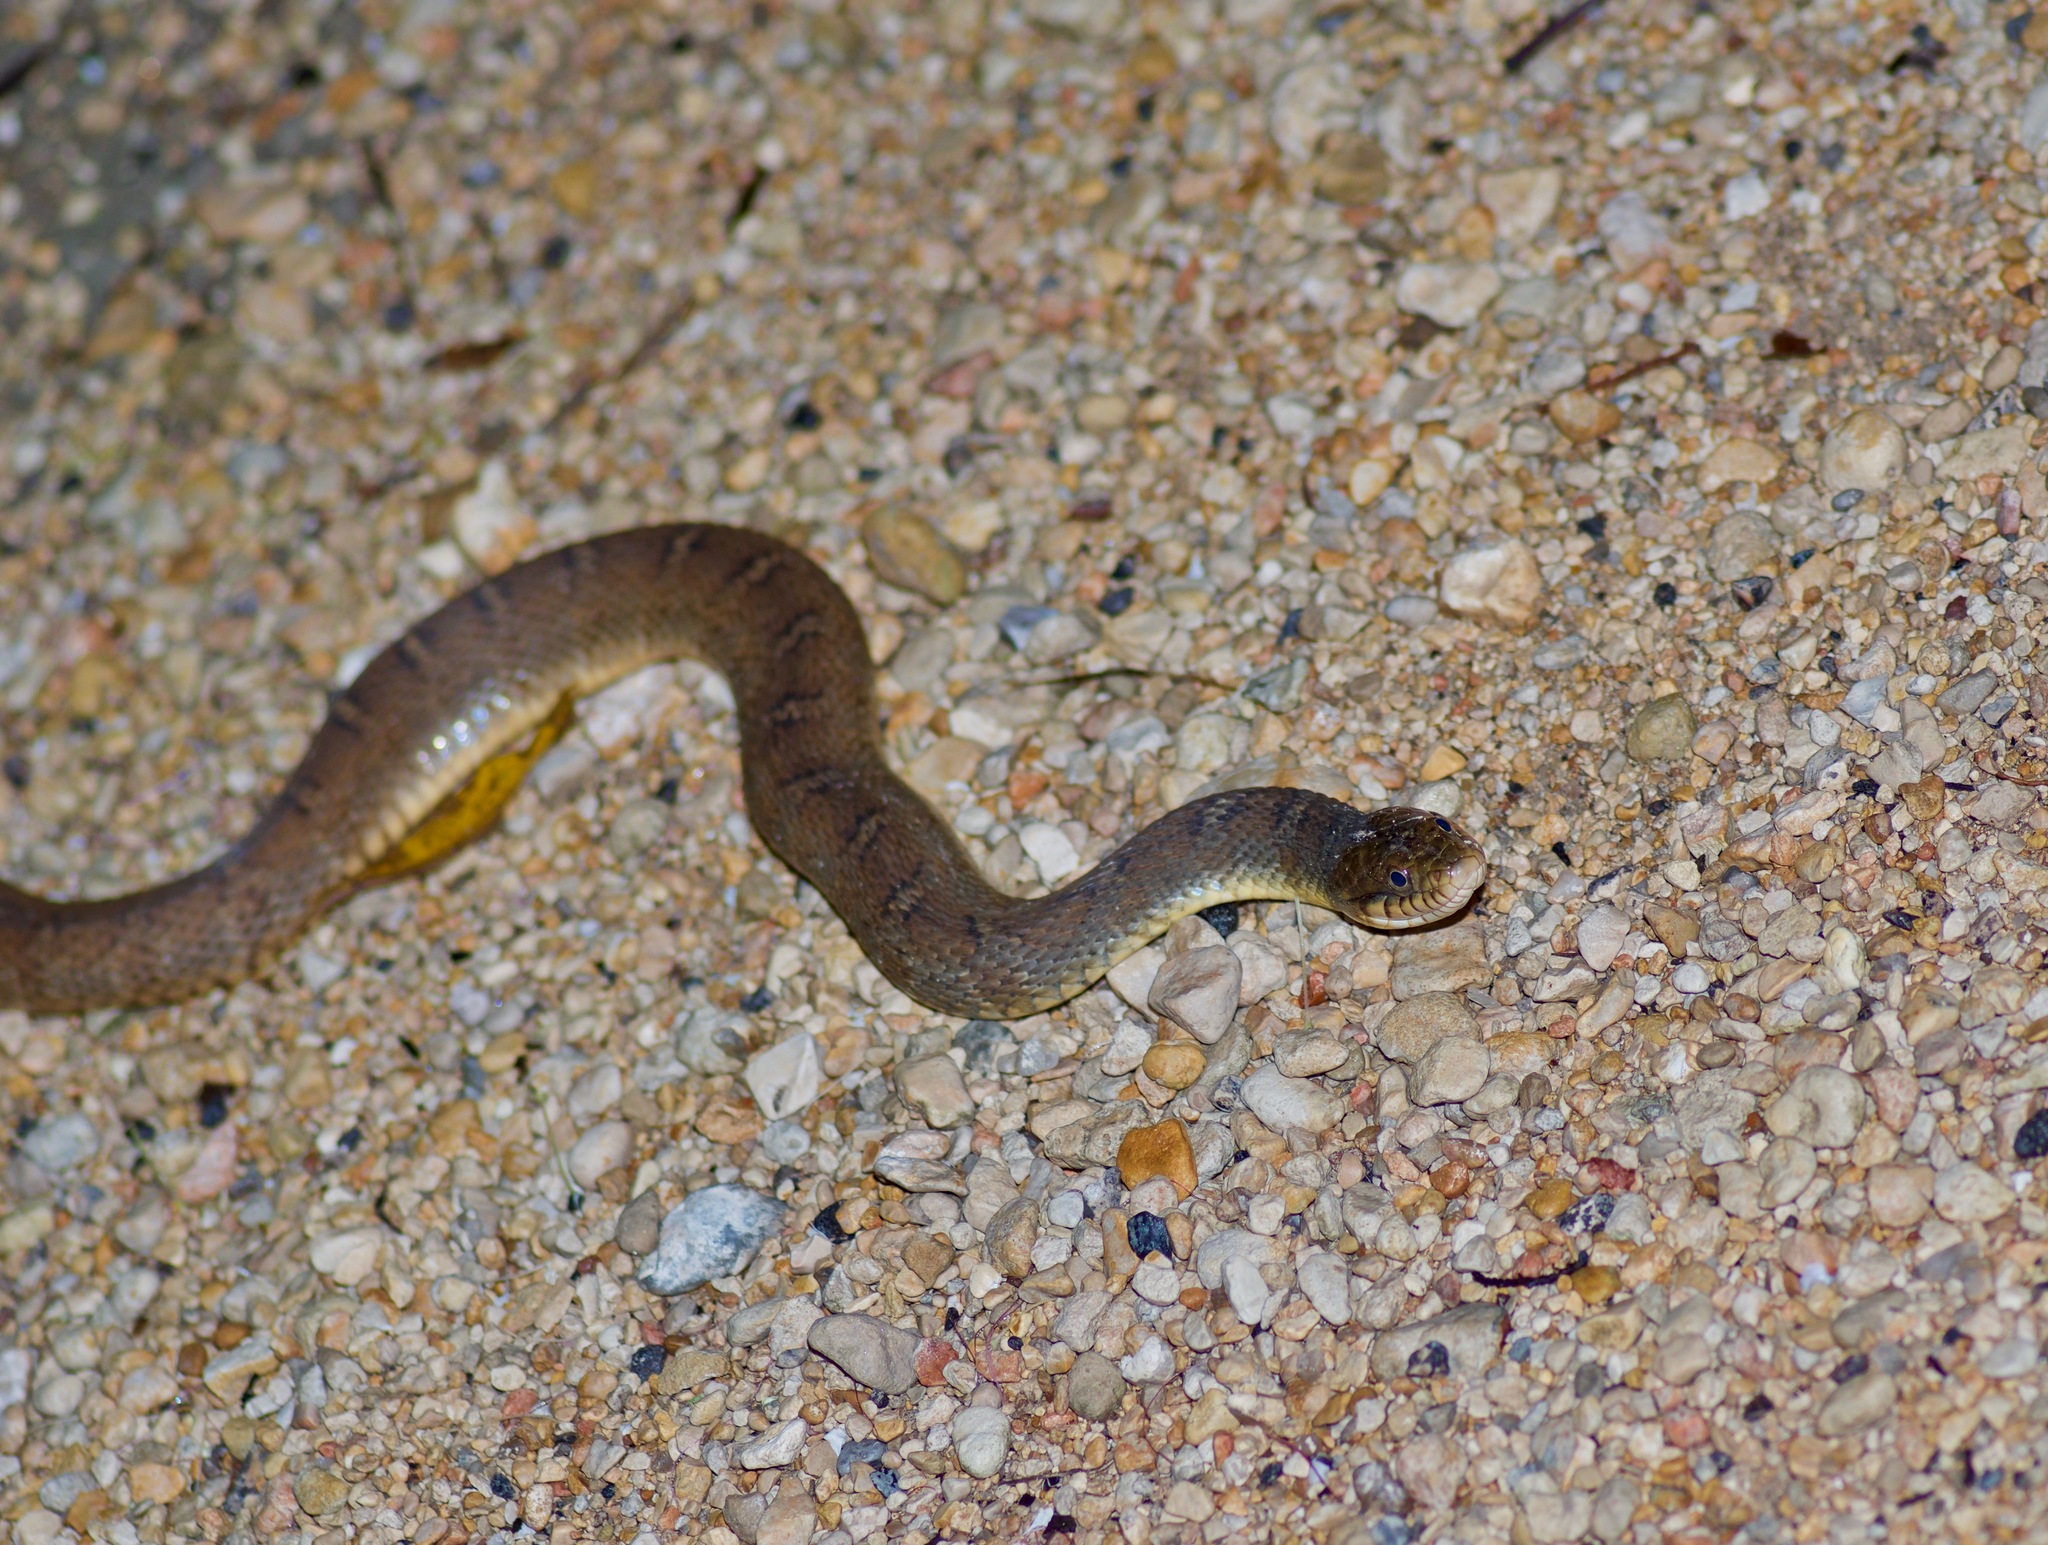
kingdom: Animalia
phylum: Chordata
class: Squamata
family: Colubridae
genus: Nerodia
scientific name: Nerodia erythrogaster
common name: Plainbelly water snake
